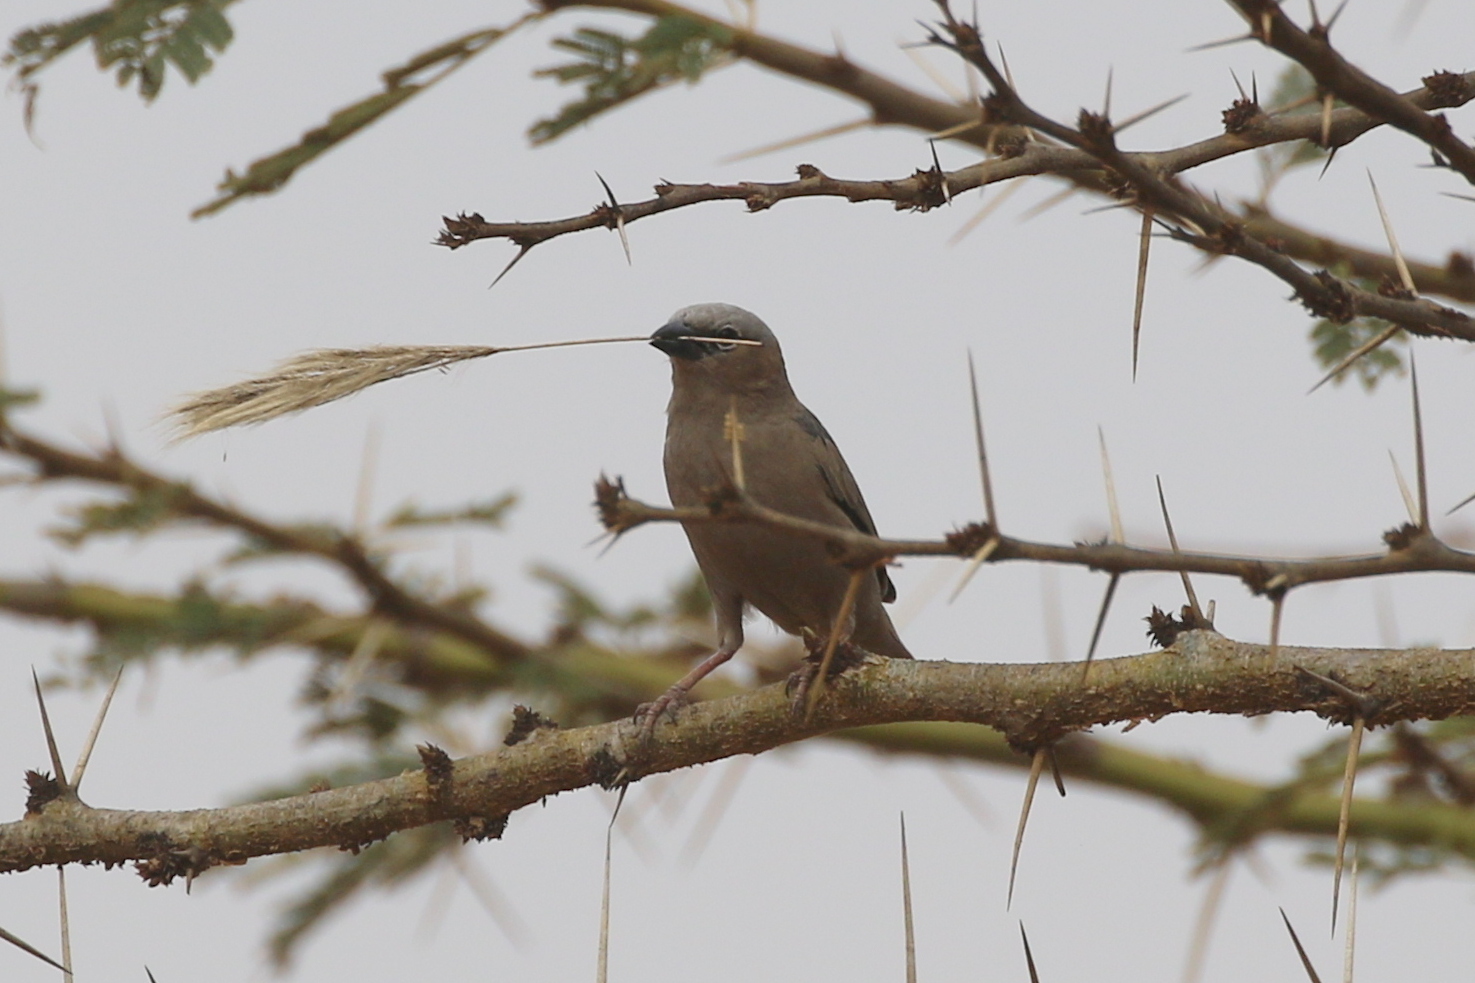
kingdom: Animalia
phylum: Chordata
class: Aves
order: Passeriformes
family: Passeridae
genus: Pseudonigrita
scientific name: Pseudonigrita arnaudi
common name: Grey-capped social weaver
